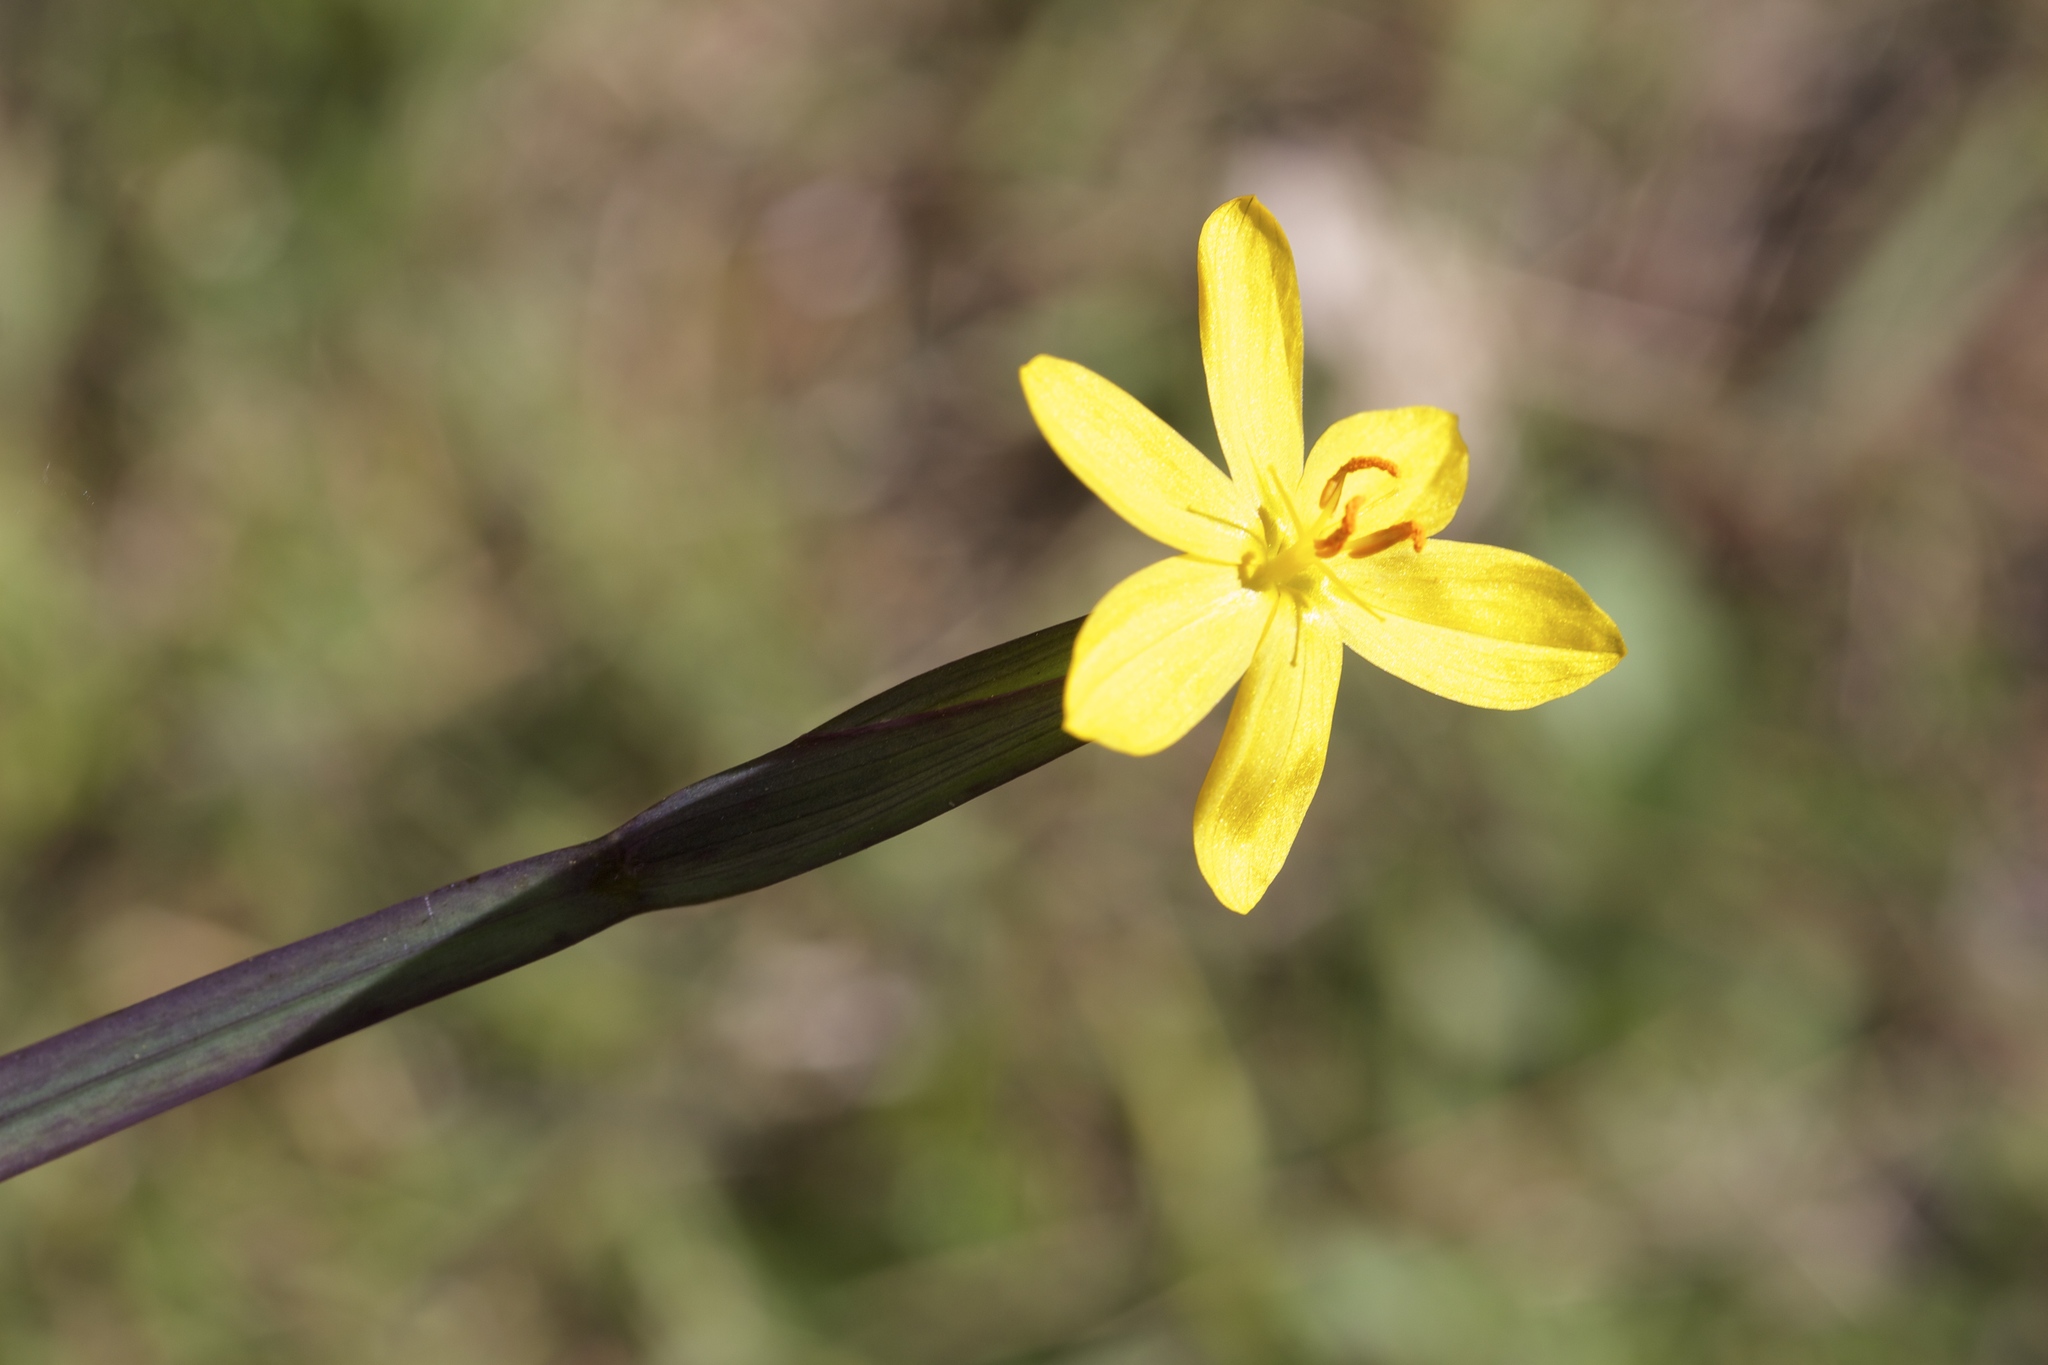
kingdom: Plantae
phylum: Tracheophyta
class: Liliopsida
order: Asparagales
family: Iridaceae
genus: Sisyrinchium
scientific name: Sisyrinchium californicum
